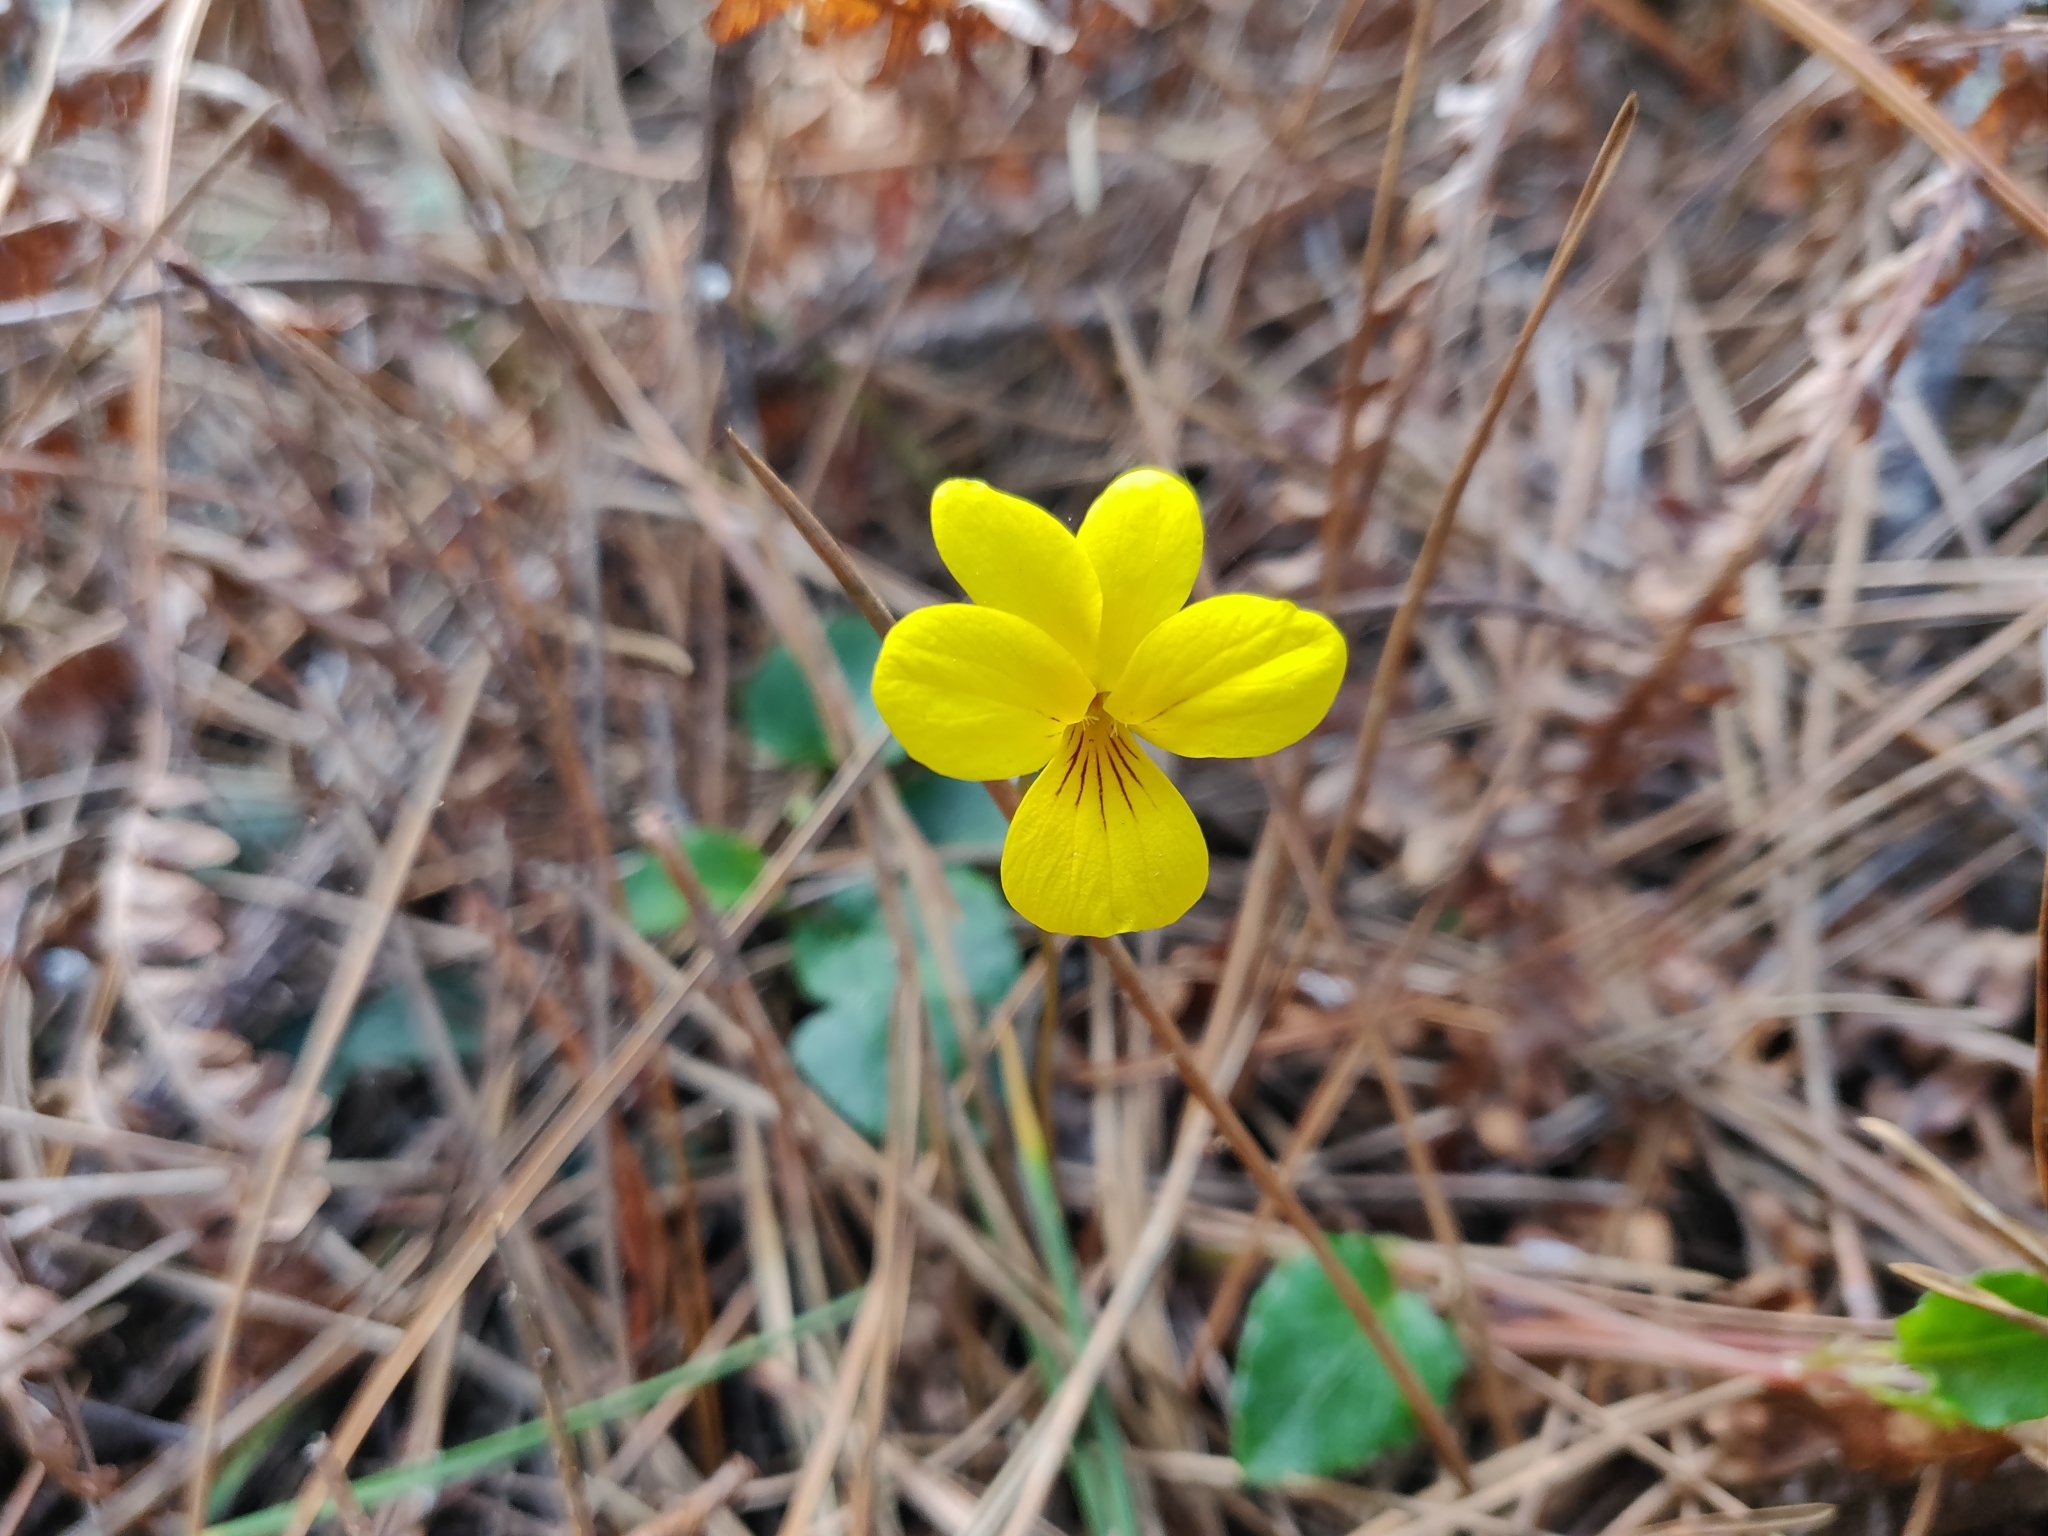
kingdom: Plantae
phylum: Tracheophyta
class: Magnoliopsida
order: Malpighiales
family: Violaceae
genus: Viola
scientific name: Viola sempervirens
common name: Evergreen violet
